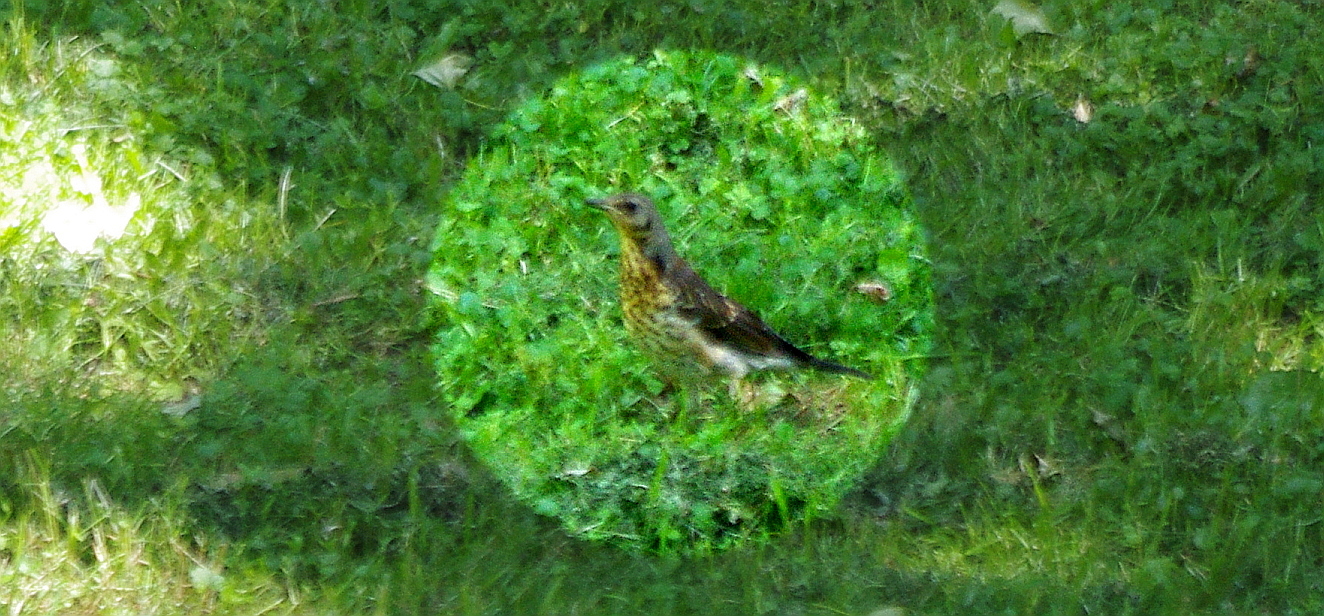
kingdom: Animalia
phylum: Chordata
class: Aves
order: Passeriformes
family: Turdidae
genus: Turdus
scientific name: Turdus pilaris
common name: Fieldfare
